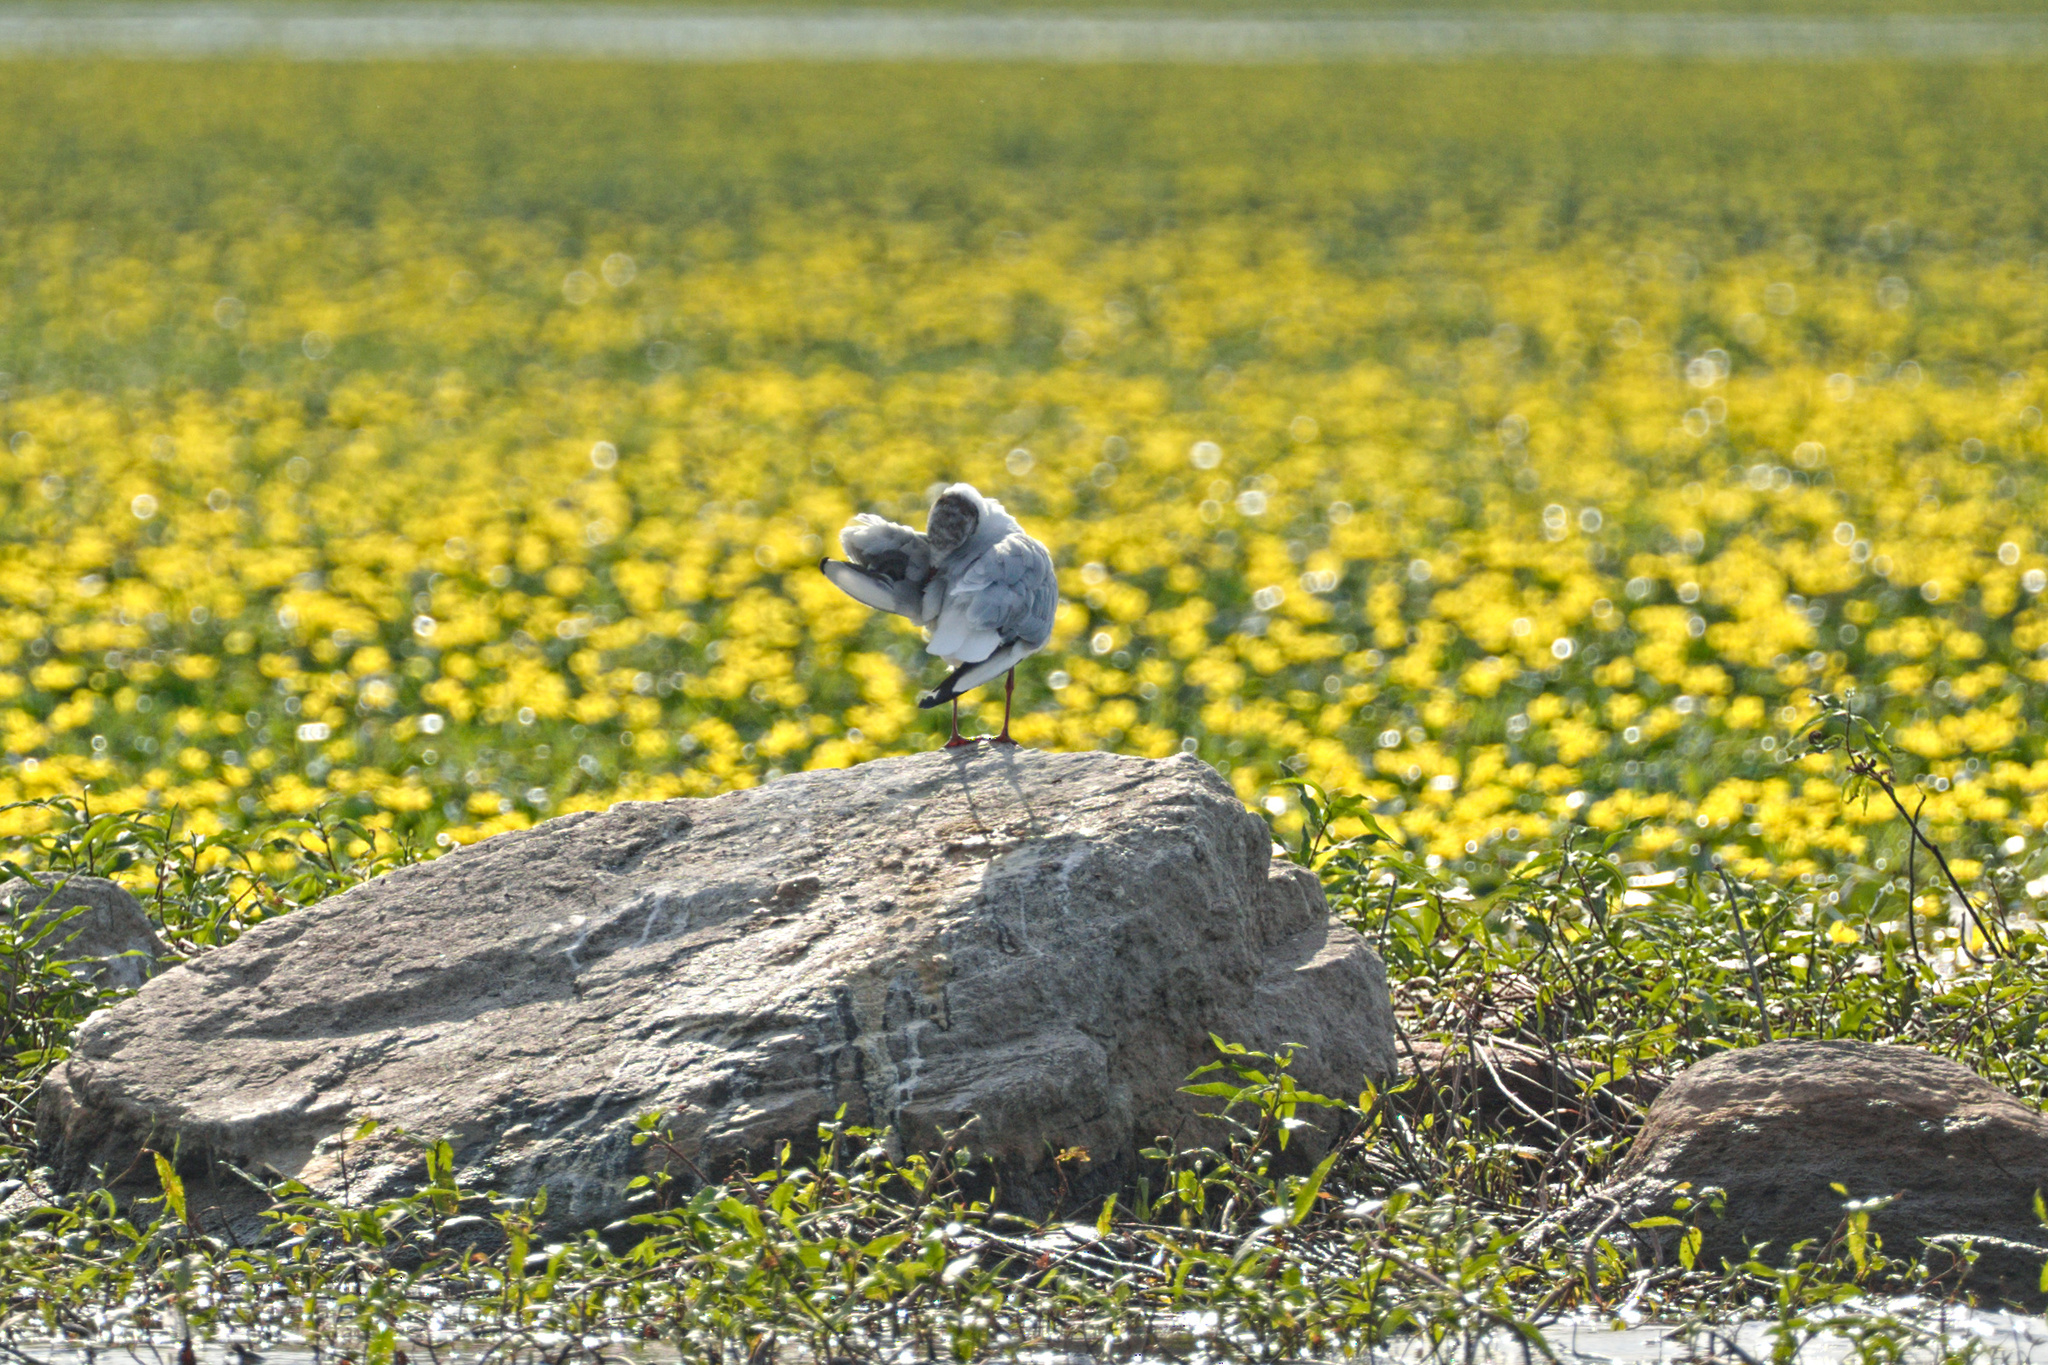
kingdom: Animalia
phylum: Chordata
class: Aves
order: Charadriiformes
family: Laridae
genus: Chroicocephalus
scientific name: Chroicocephalus ridibundus
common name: Black-headed gull
